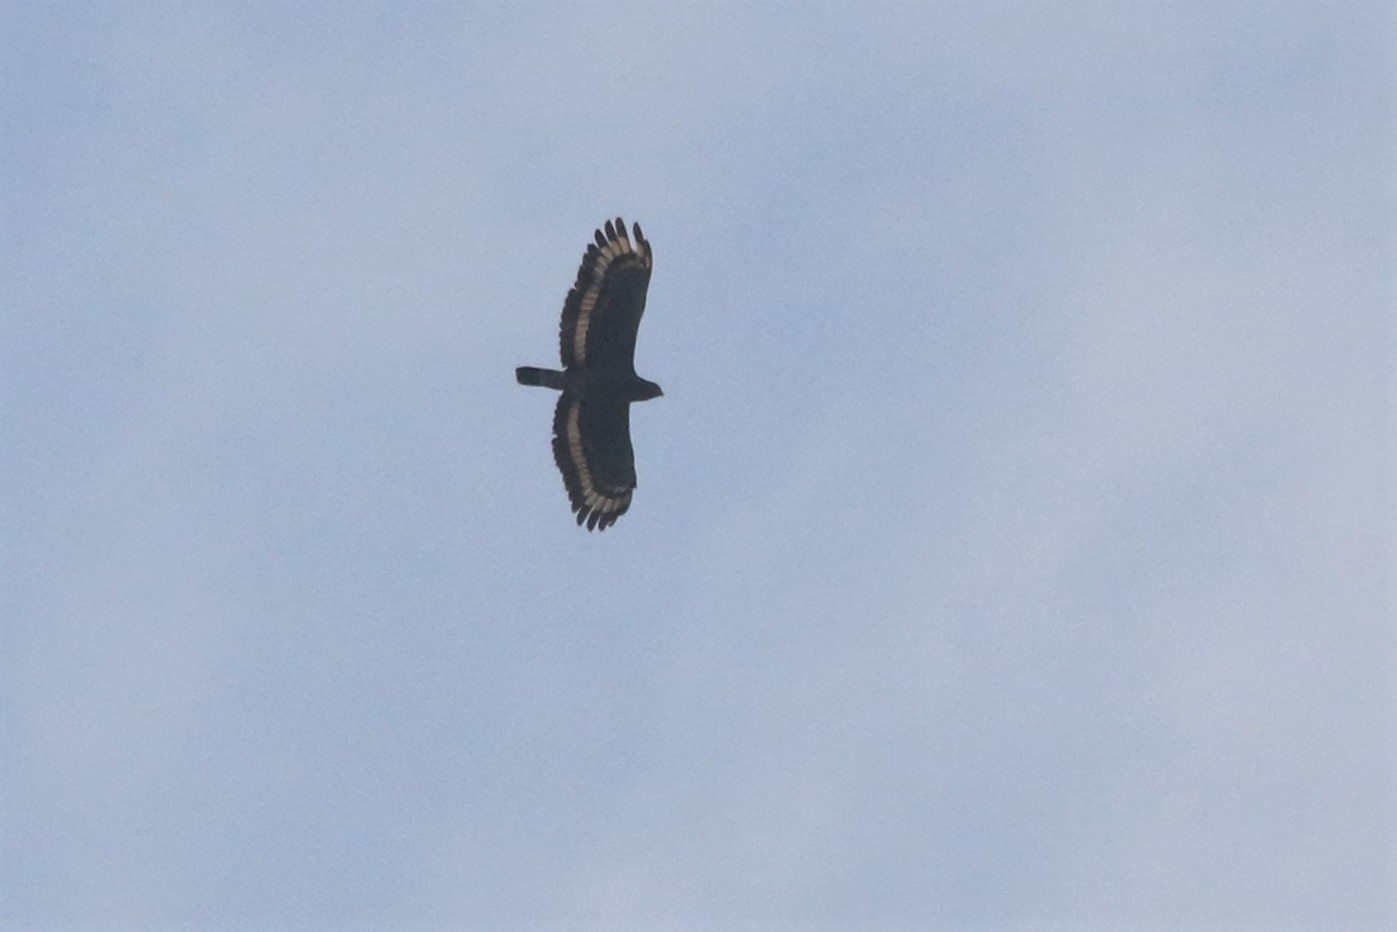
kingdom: Animalia
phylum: Chordata
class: Aves
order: Accipitriformes
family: Accipitridae
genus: Spilornis
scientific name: Spilornis cheela
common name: Crested serpent eagle
